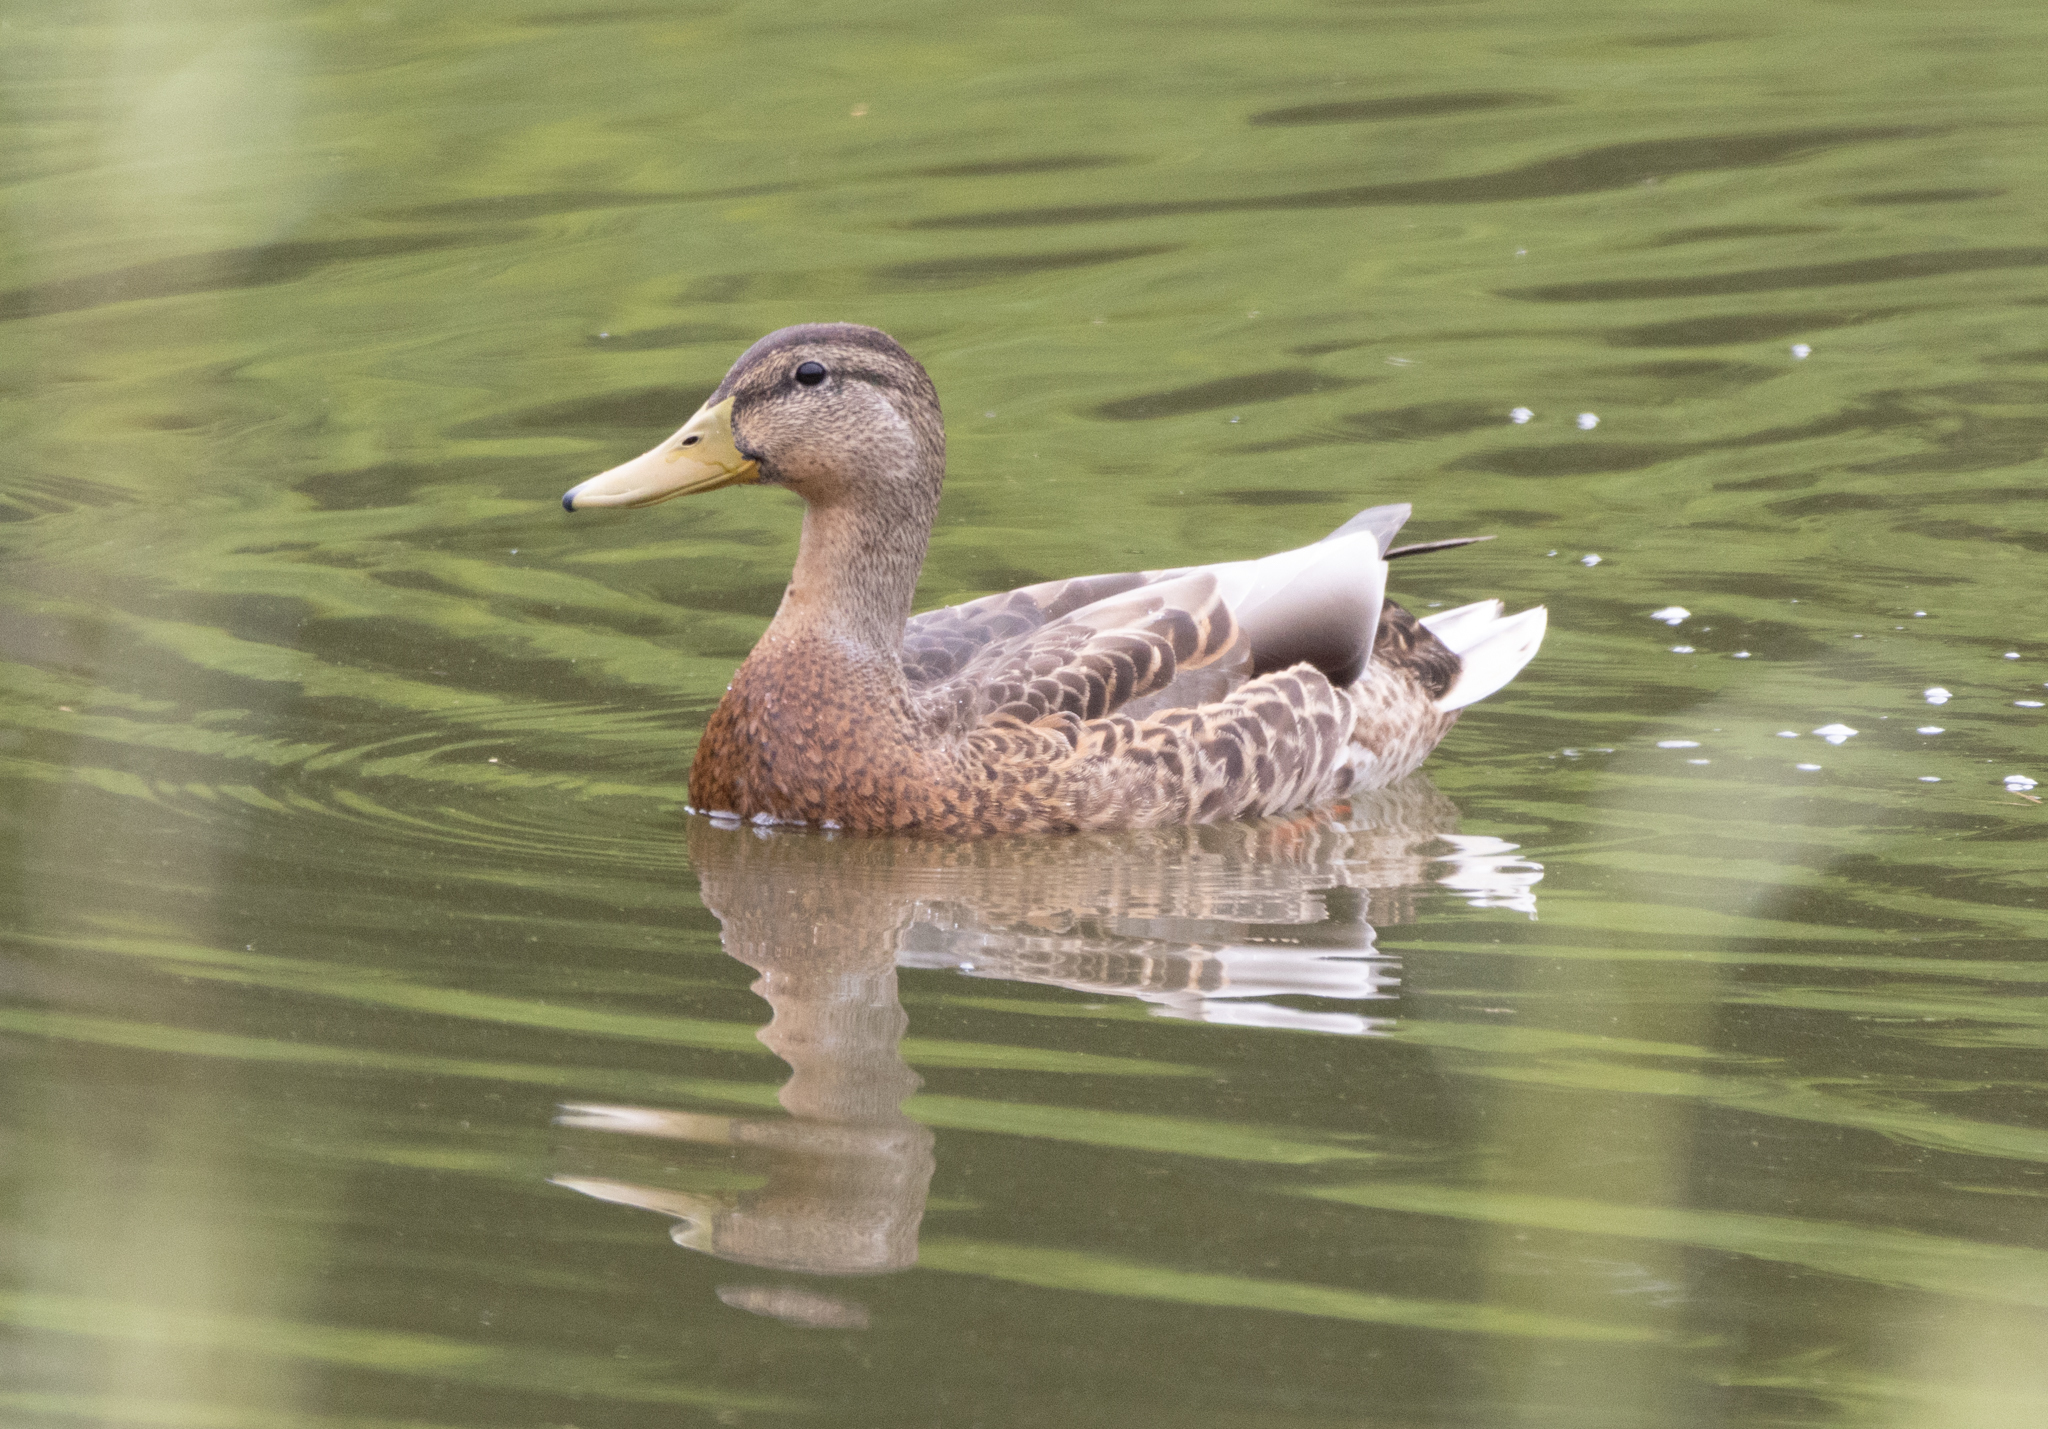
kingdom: Animalia
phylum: Chordata
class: Aves
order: Anseriformes
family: Anatidae
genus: Anas
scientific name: Anas platyrhynchos
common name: Mallard
